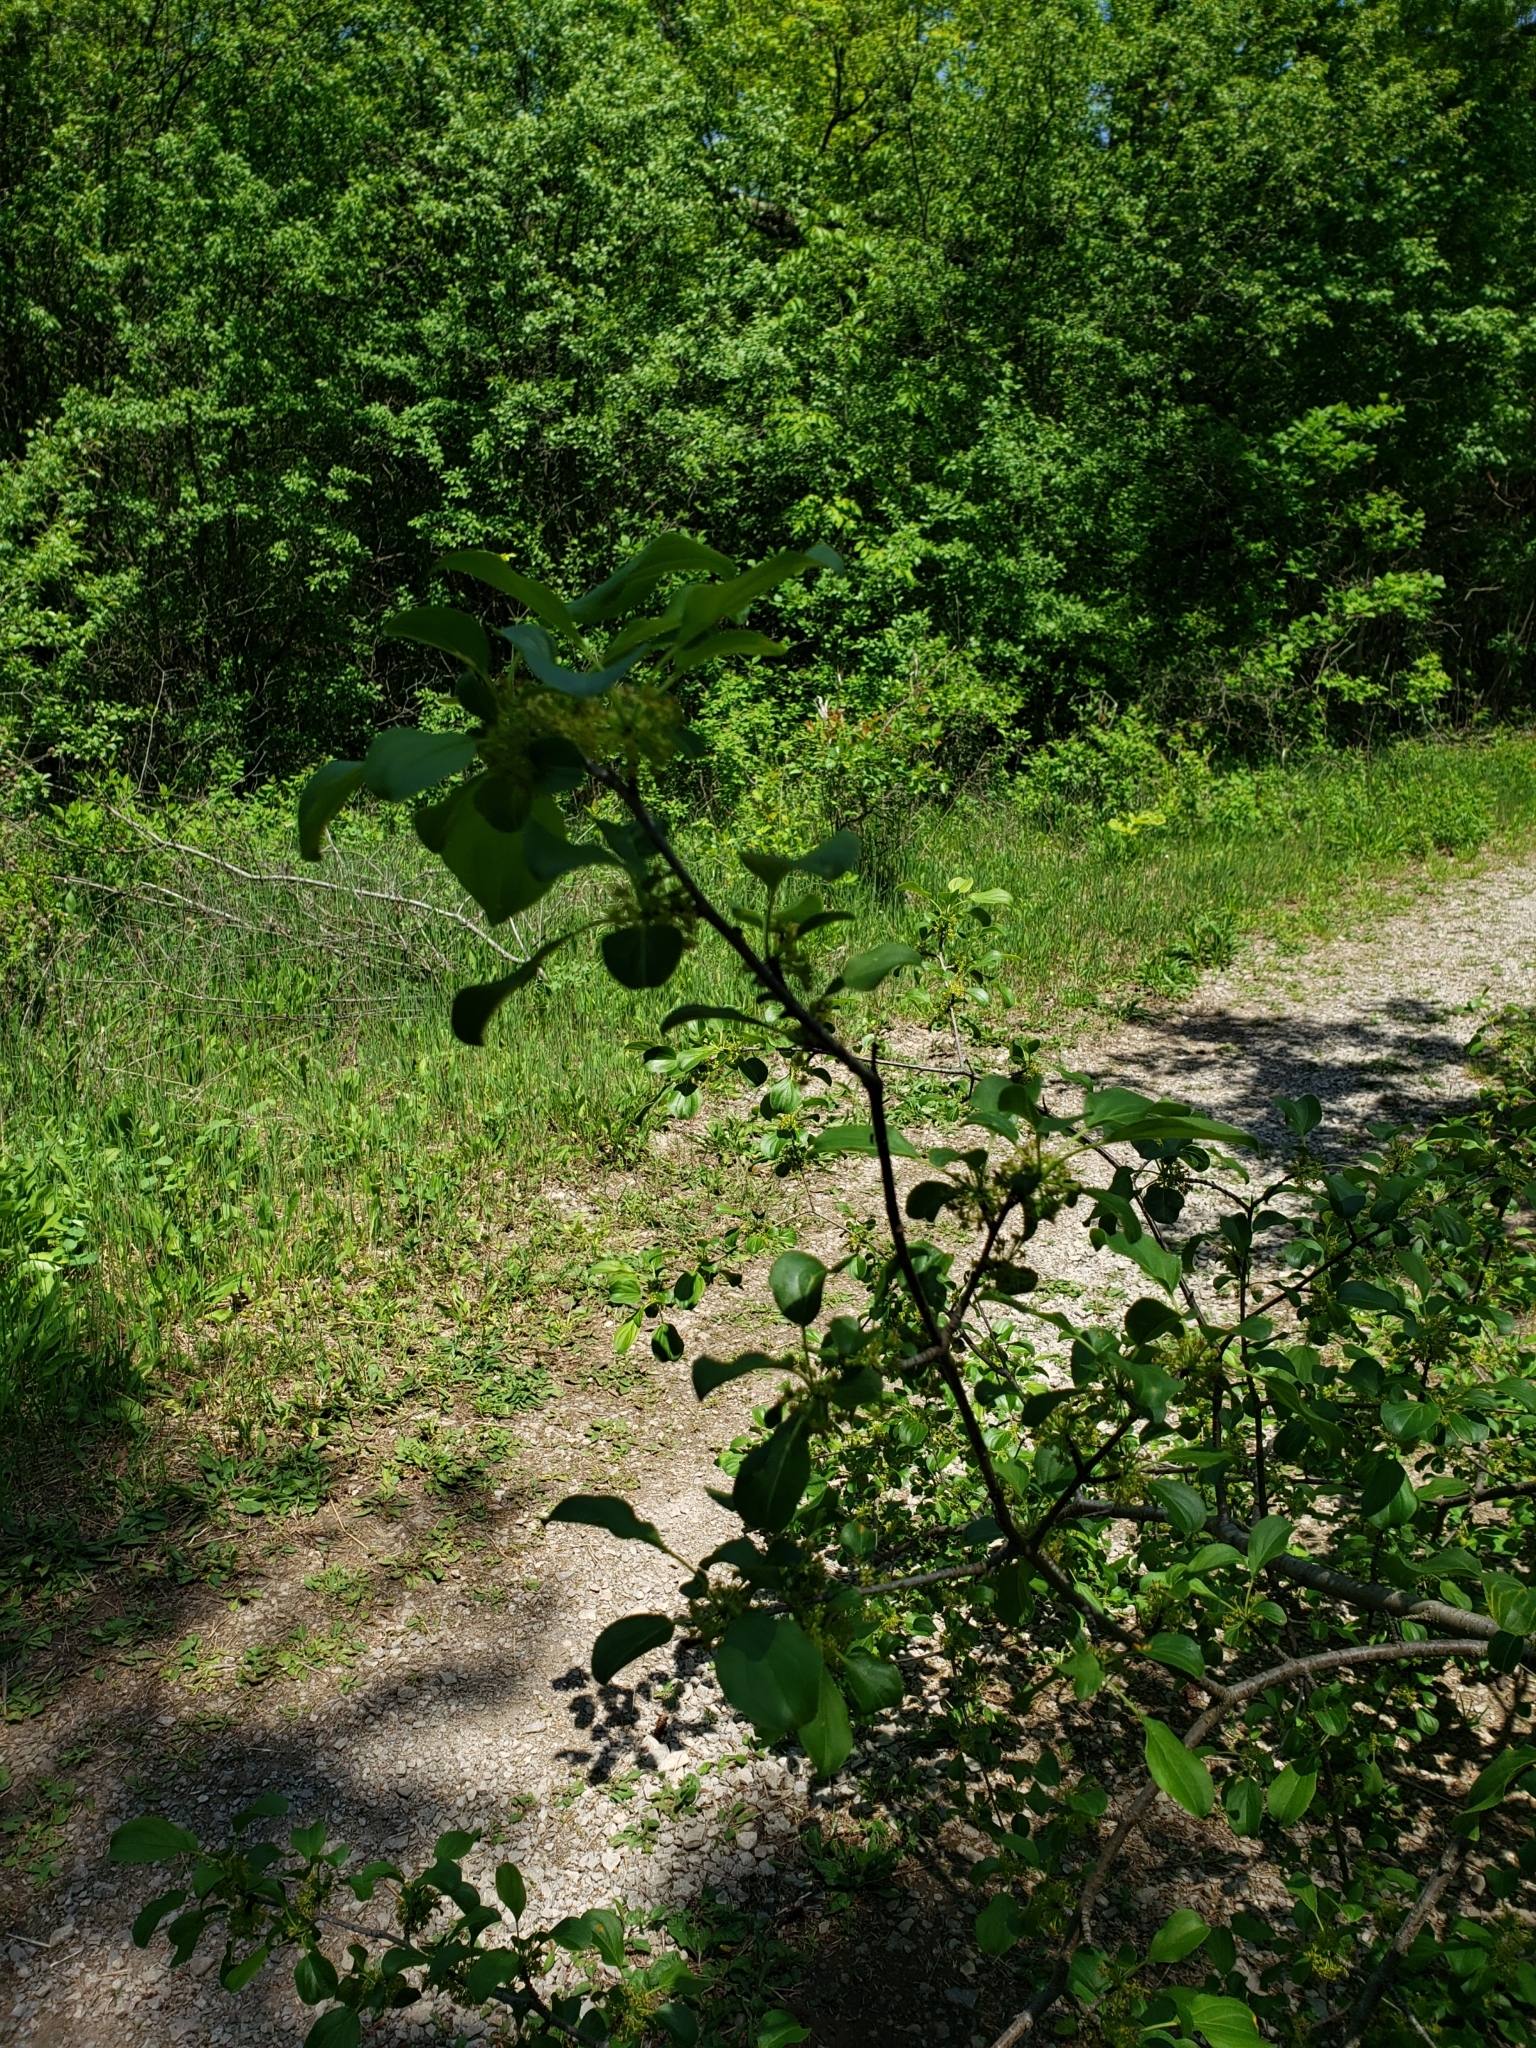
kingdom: Plantae
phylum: Tracheophyta
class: Magnoliopsida
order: Rosales
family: Rhamnaceae
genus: Rhamnus
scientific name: Rhamnus cathartica
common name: Common buckthorn
